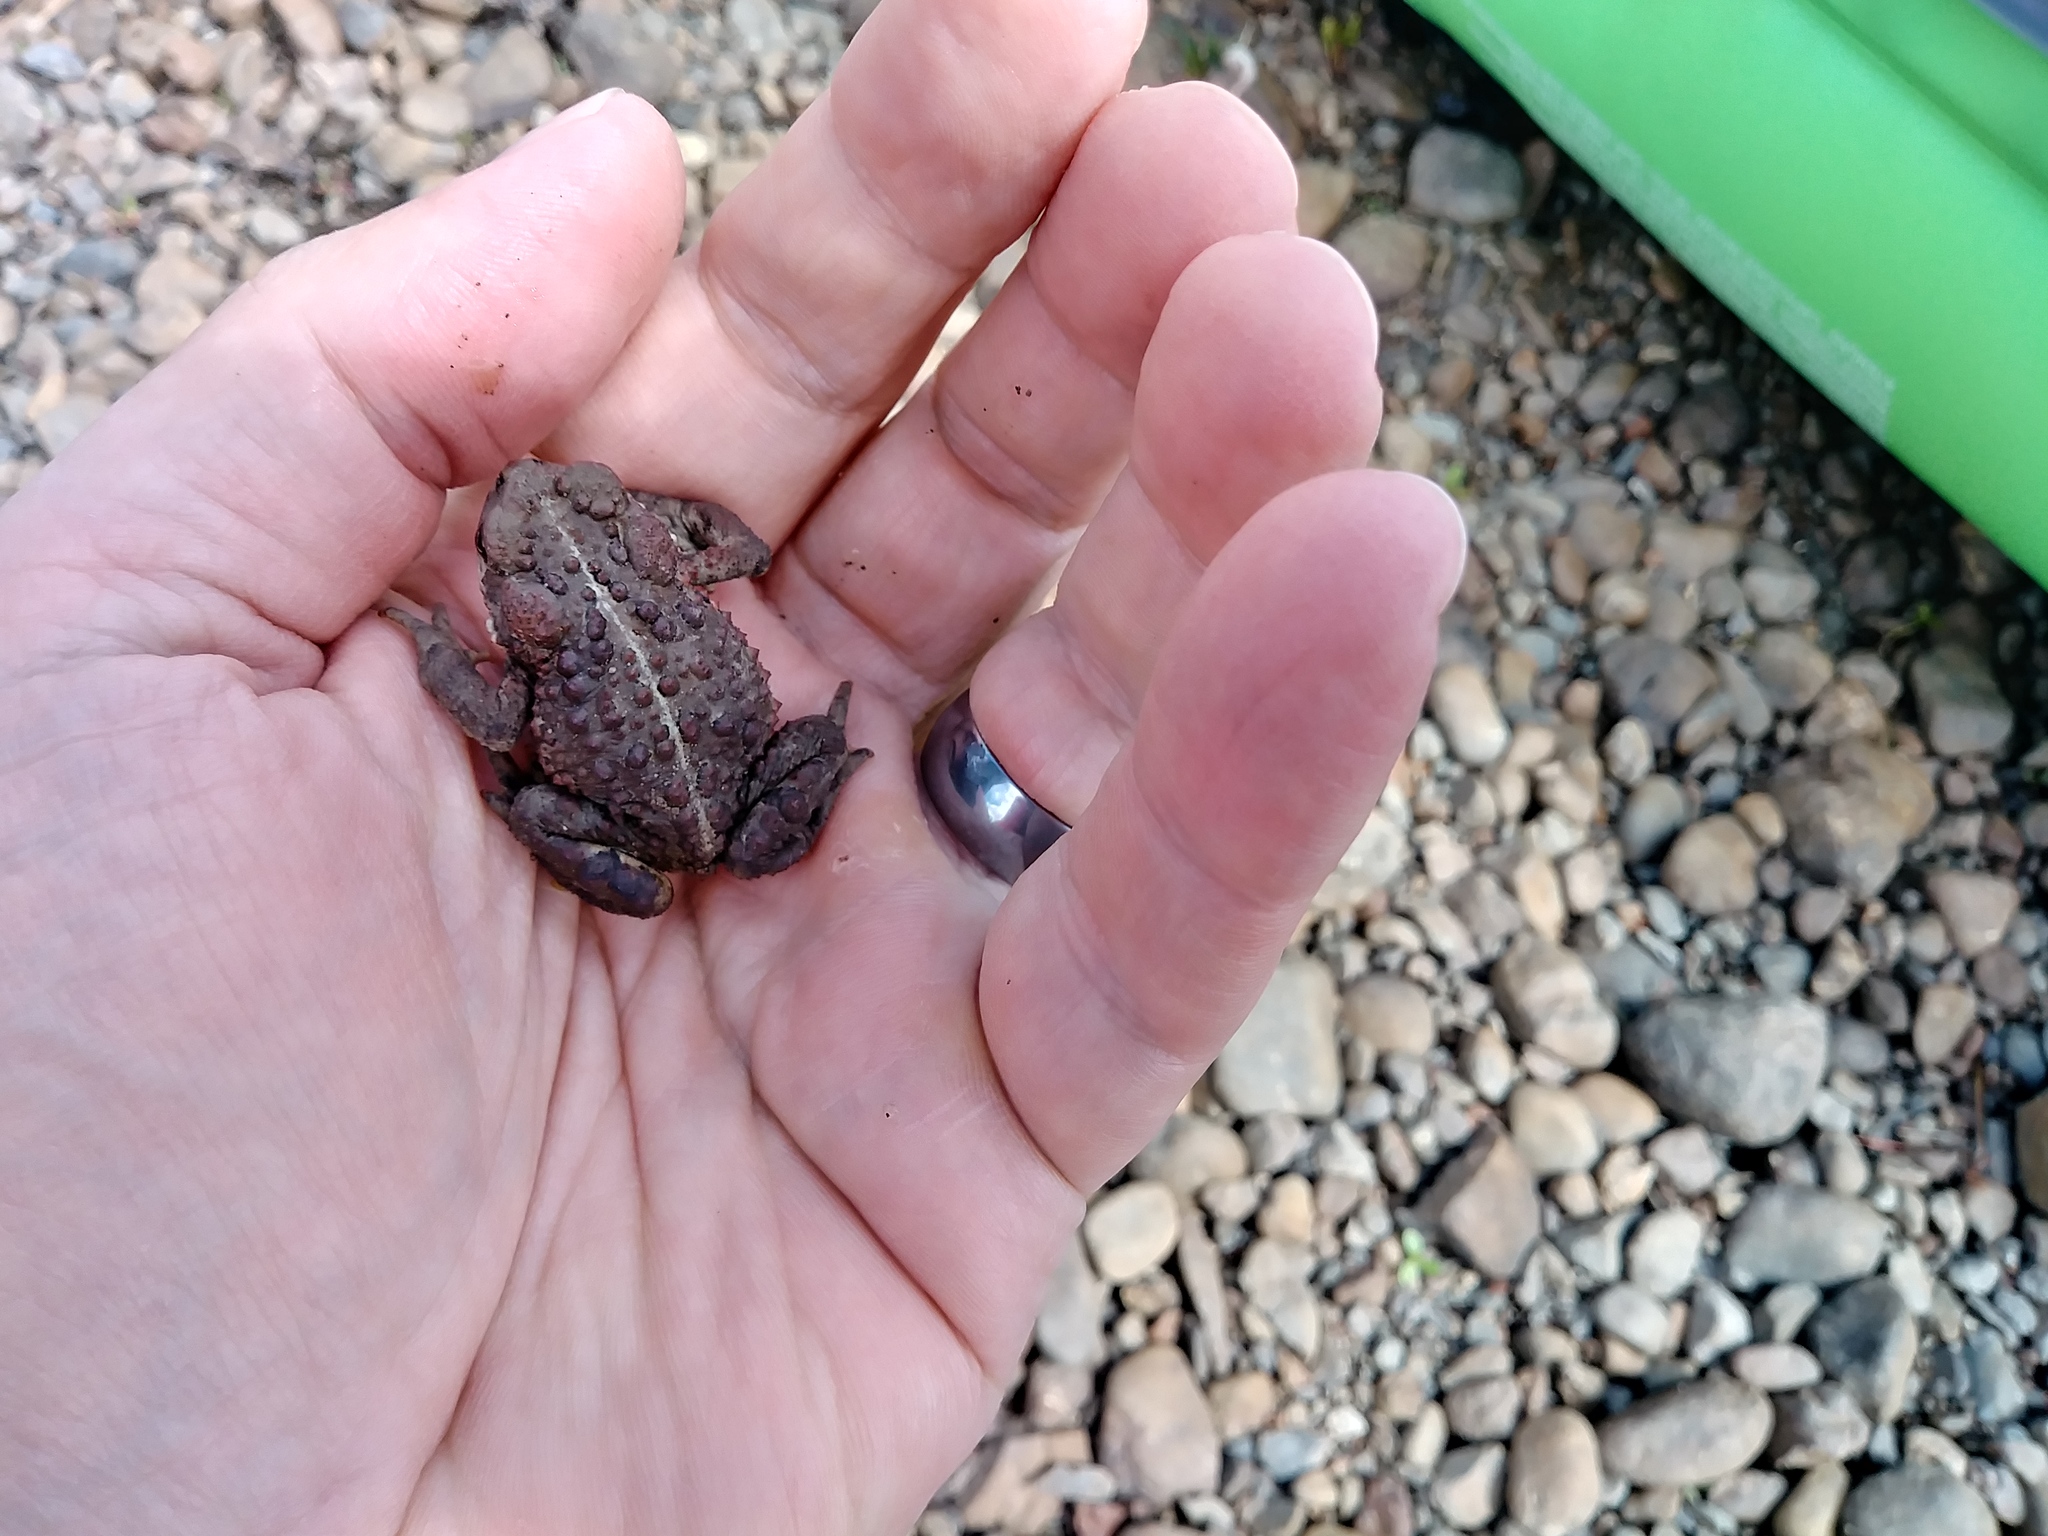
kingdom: Animalia
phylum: Chordata
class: Amphibia
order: Anura
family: Bufonidae
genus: Anaxyrus
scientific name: Anaxyrus boreas
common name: Western toad
